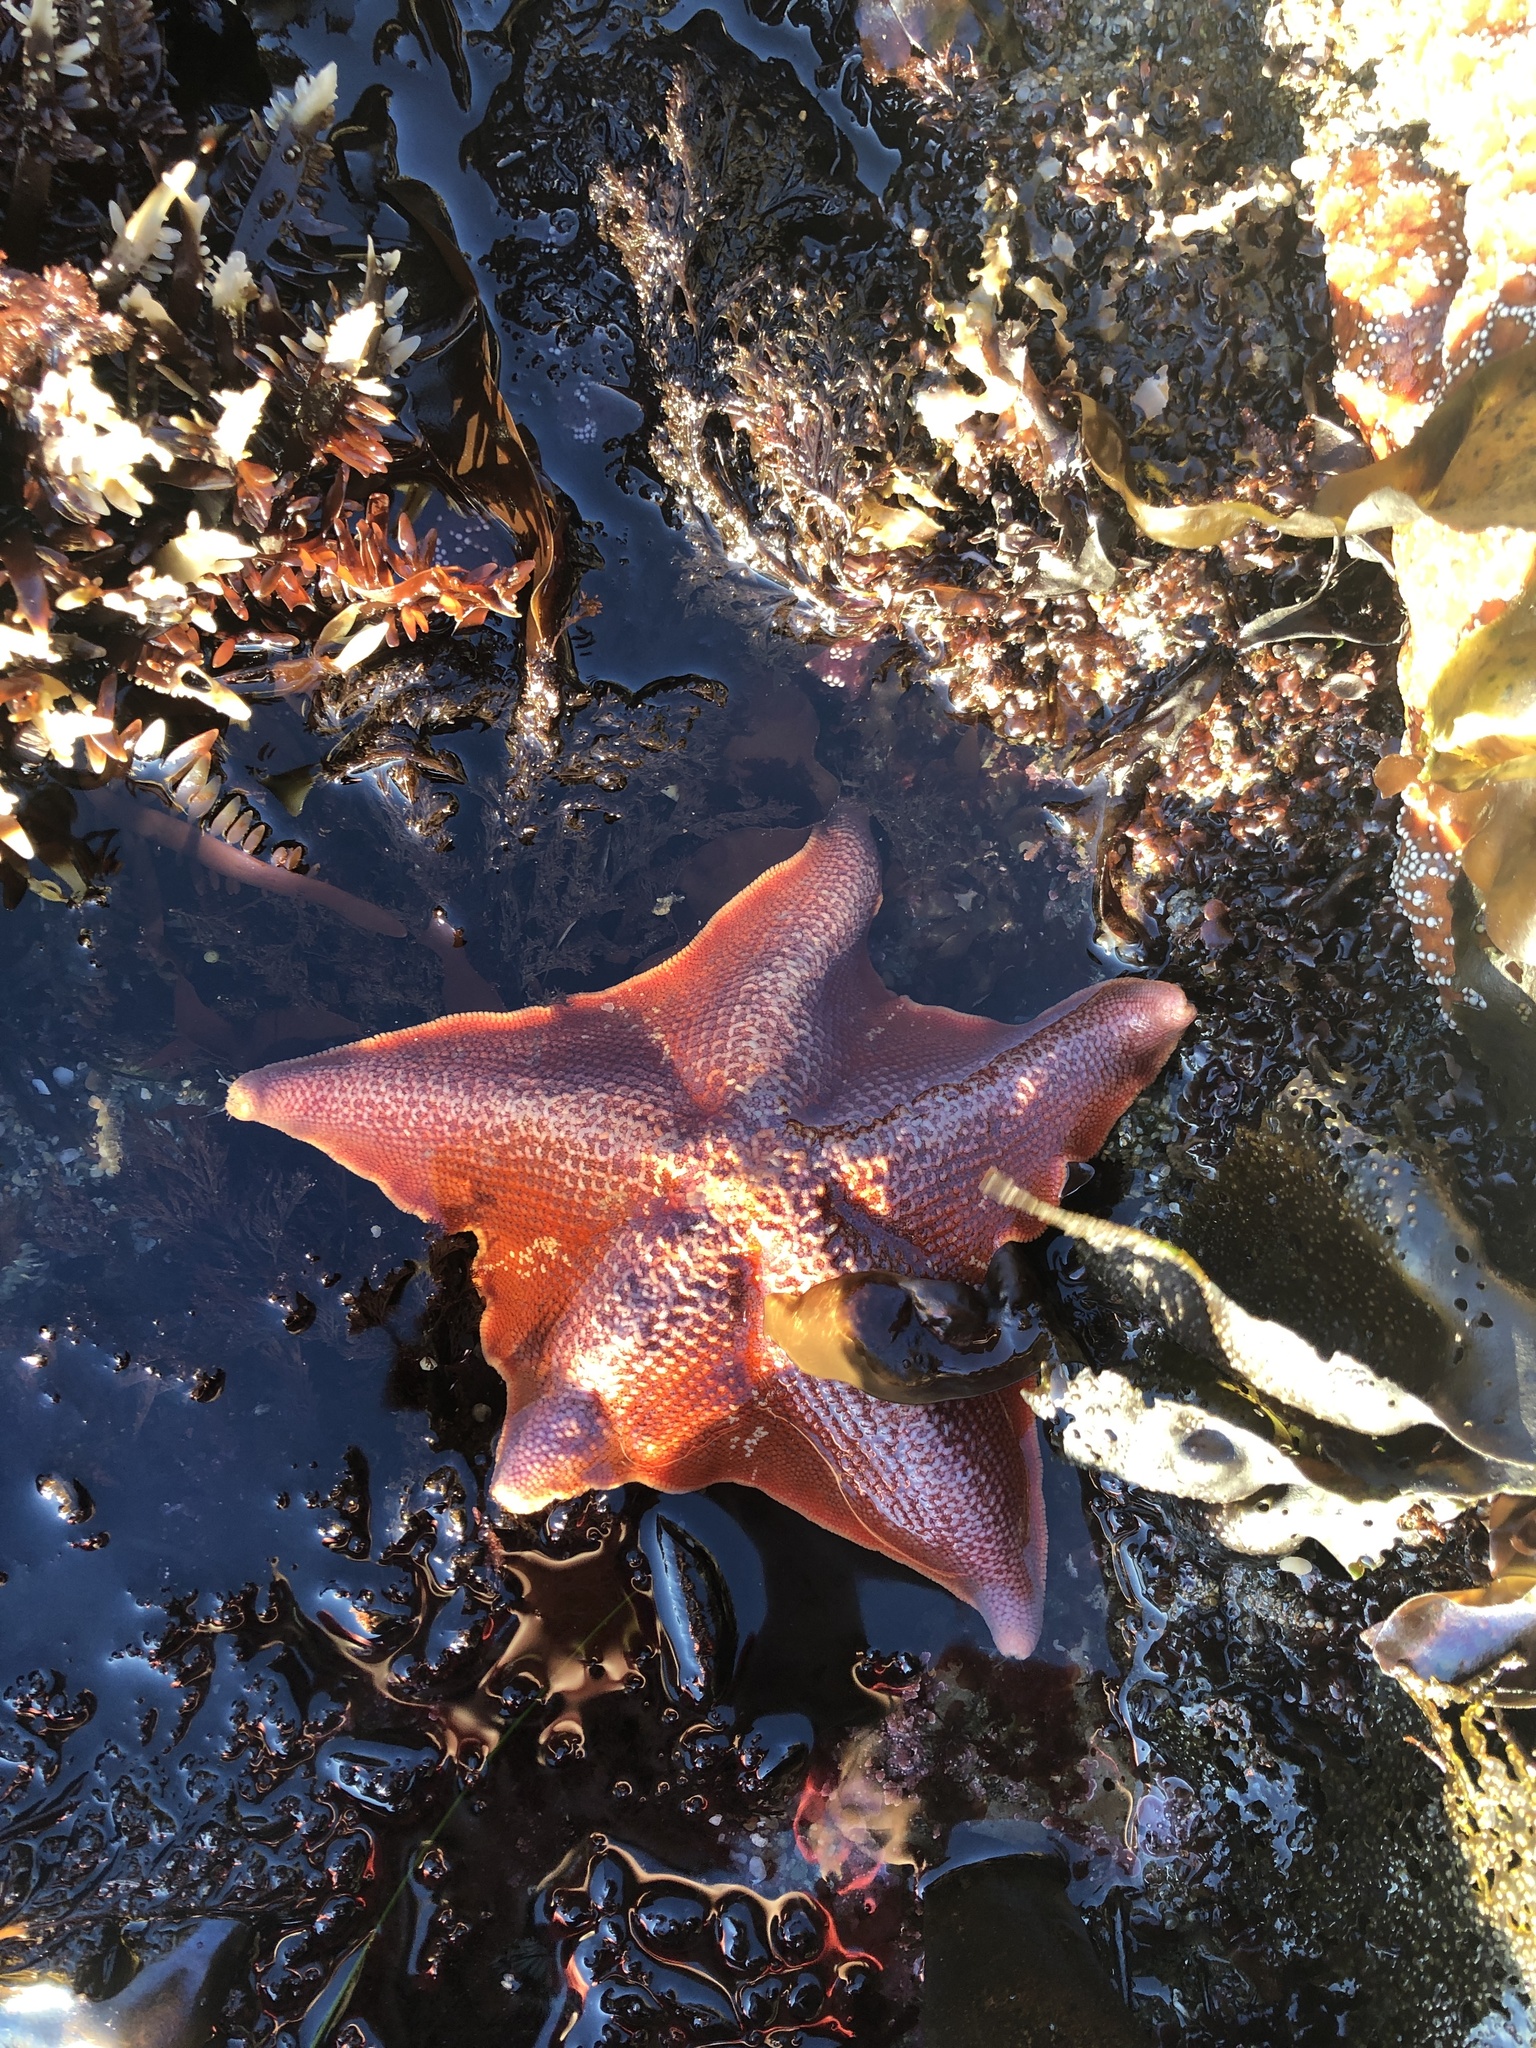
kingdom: Animalia
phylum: Echinodermata
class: Asteroidea
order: Valvatida
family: Asterinidae
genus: Patiria
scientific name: Patiria miniata
